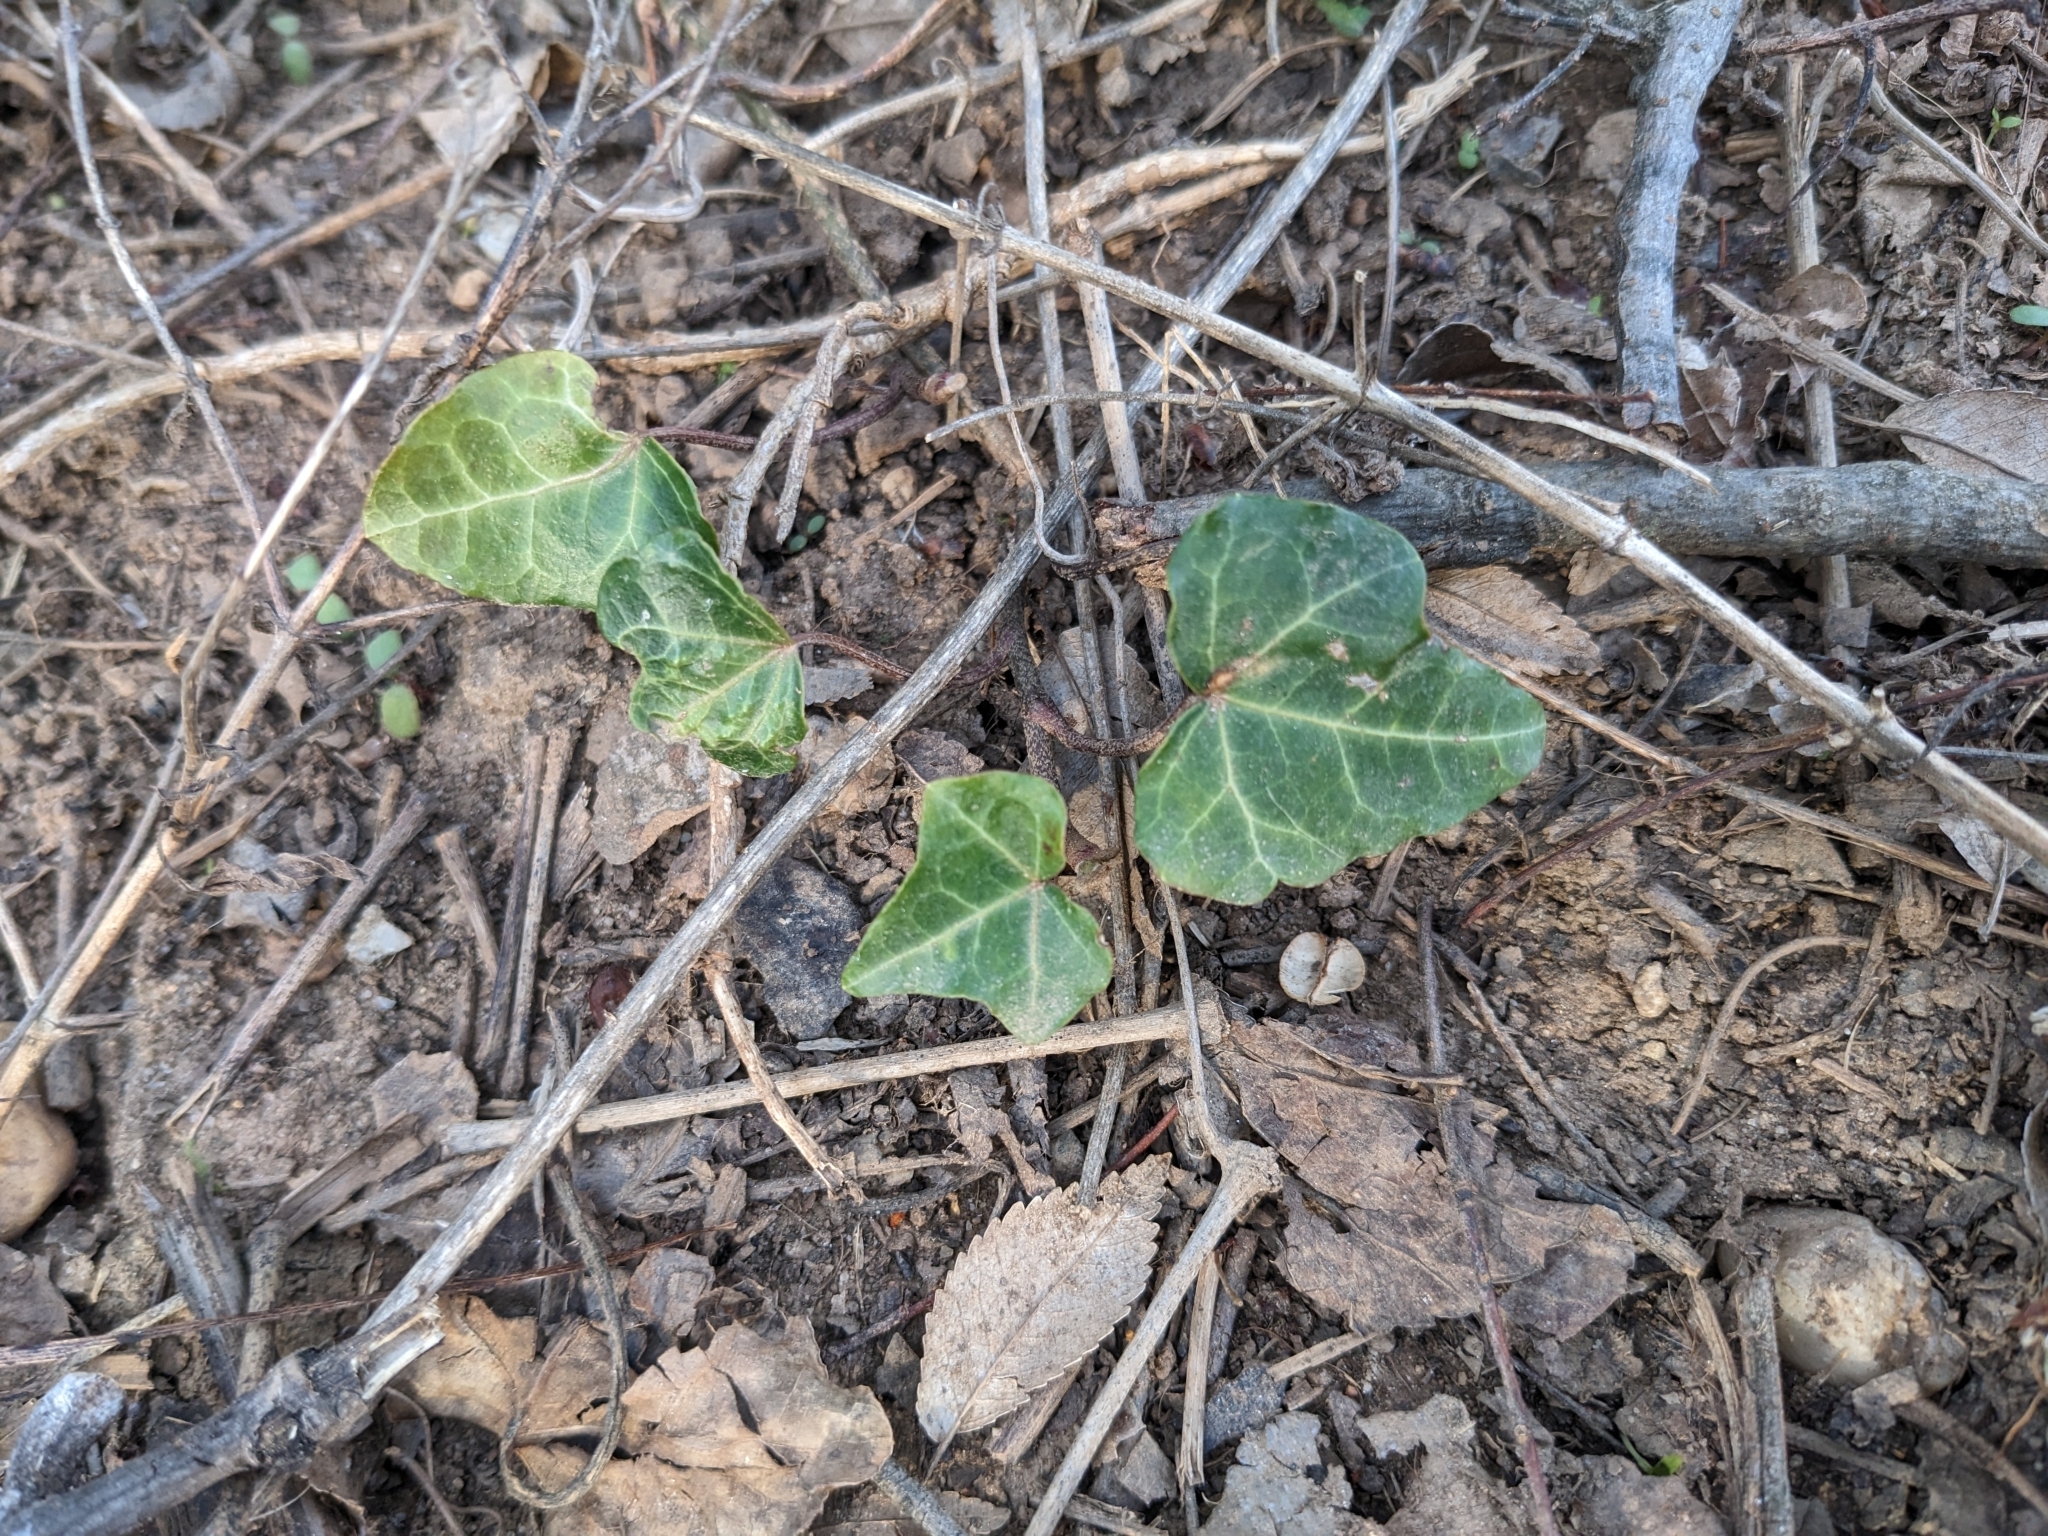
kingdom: Plantae
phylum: Tracheophyta
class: Magnoliopsida
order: Apiales
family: Araliaceae
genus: Hedera
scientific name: Hedera helix
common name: Ivy
